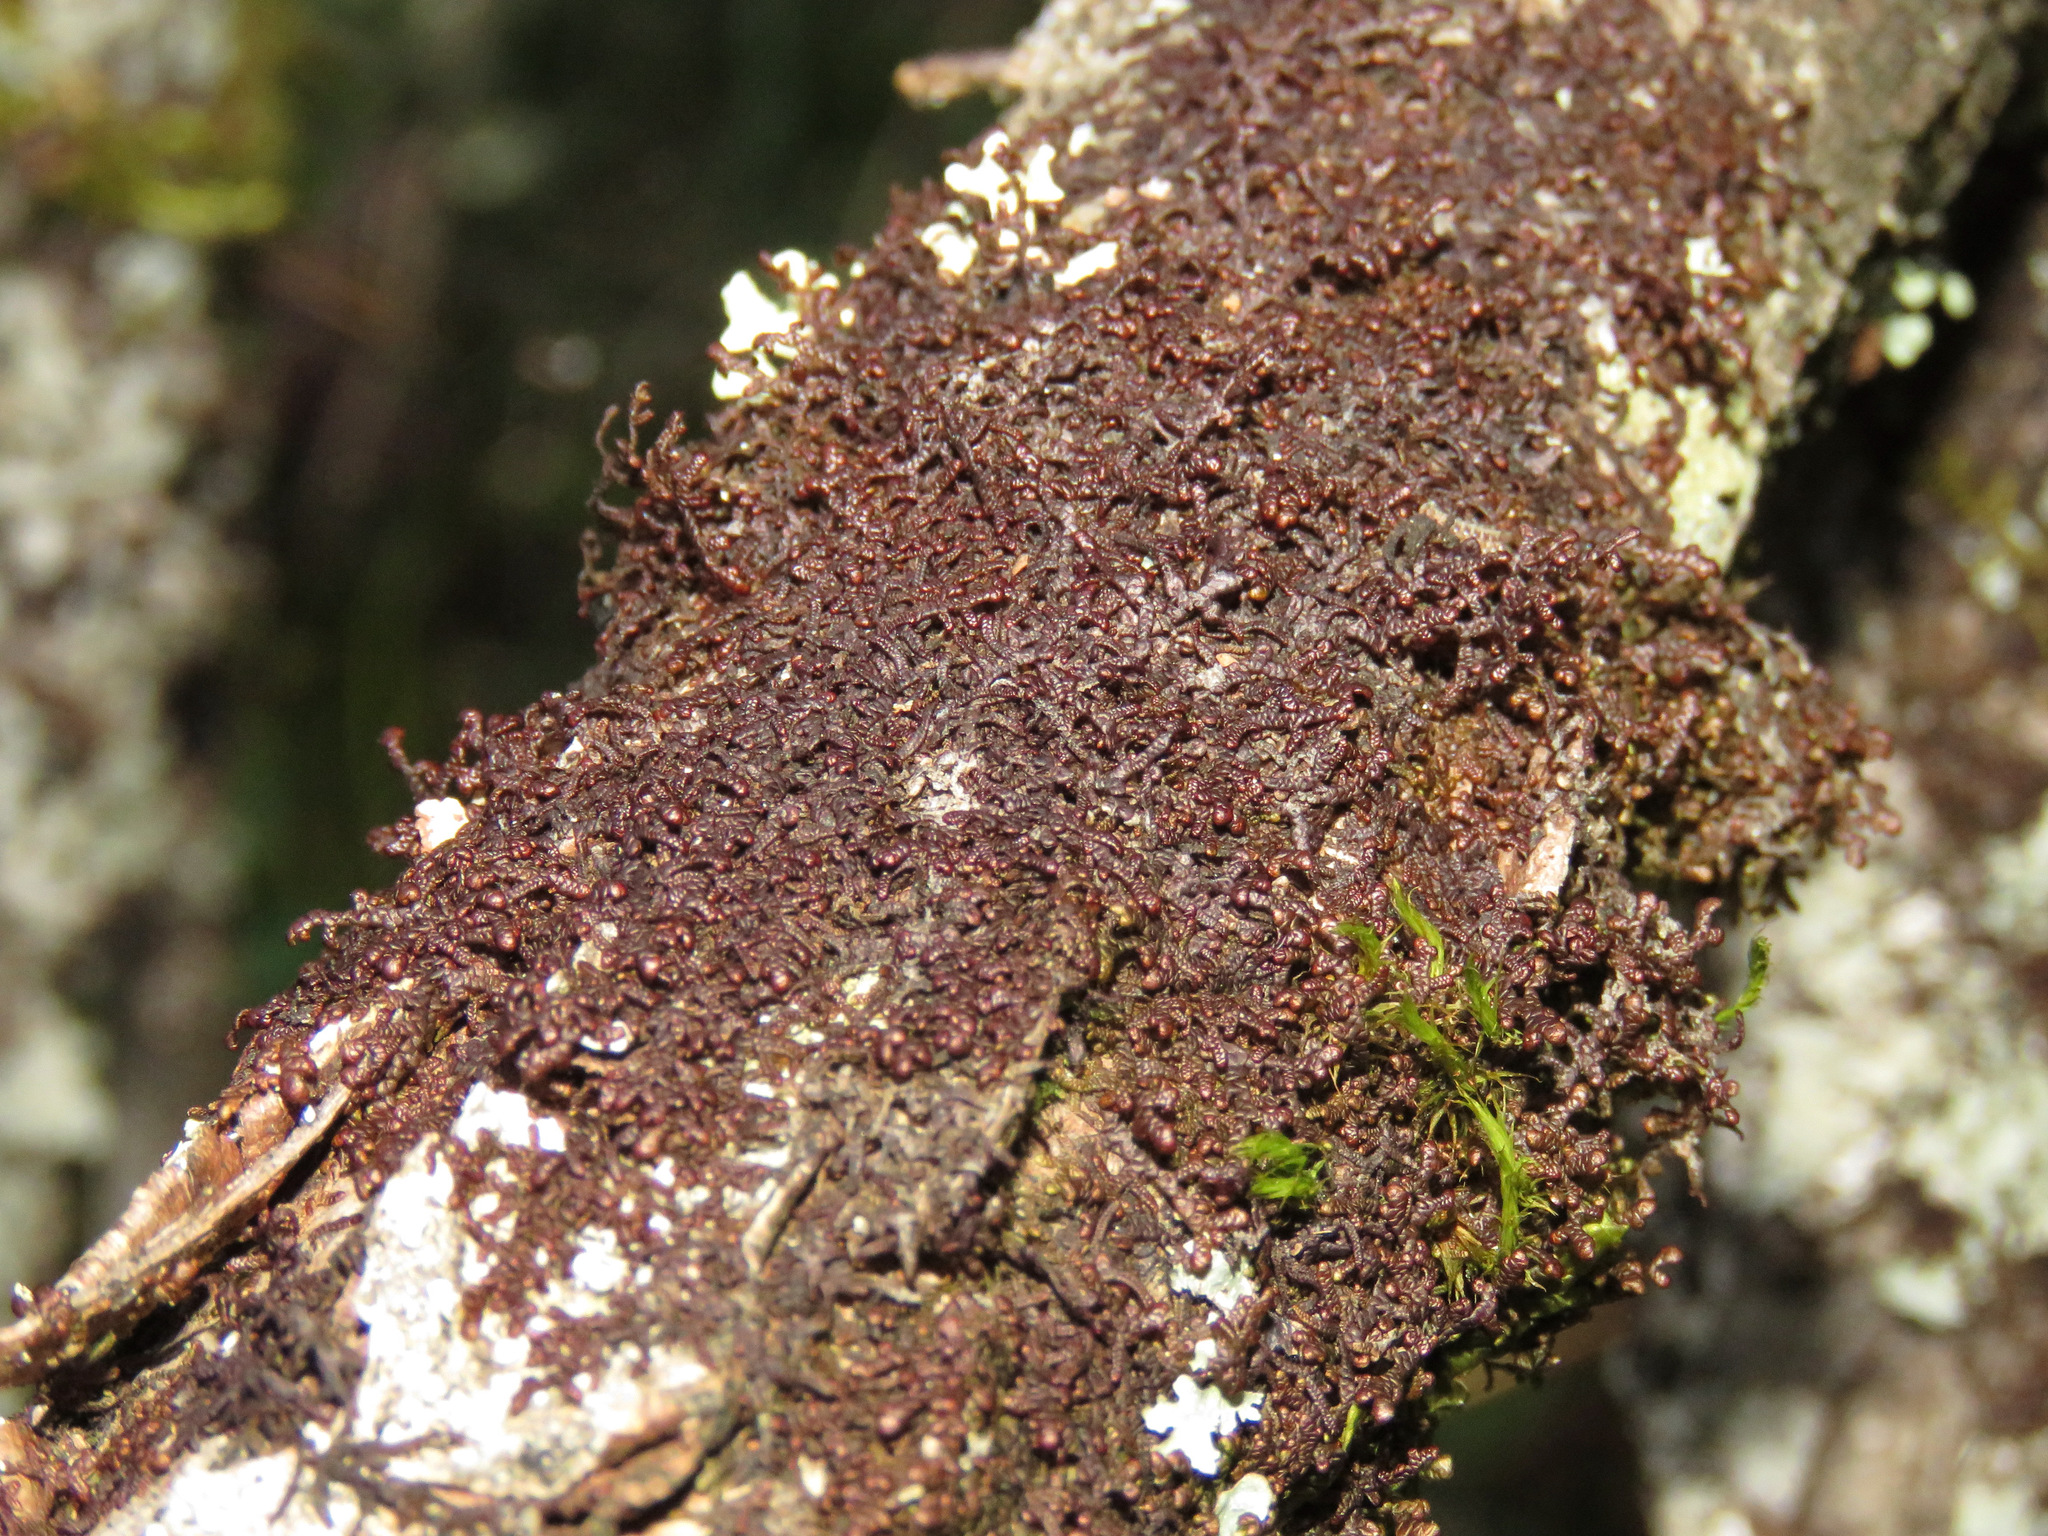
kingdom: Plantae
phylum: Marchantiophyta
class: Jungermanniopsida
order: Porellales
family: Frullaniaceae
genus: Frullania
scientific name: Frullania nisquallensis
